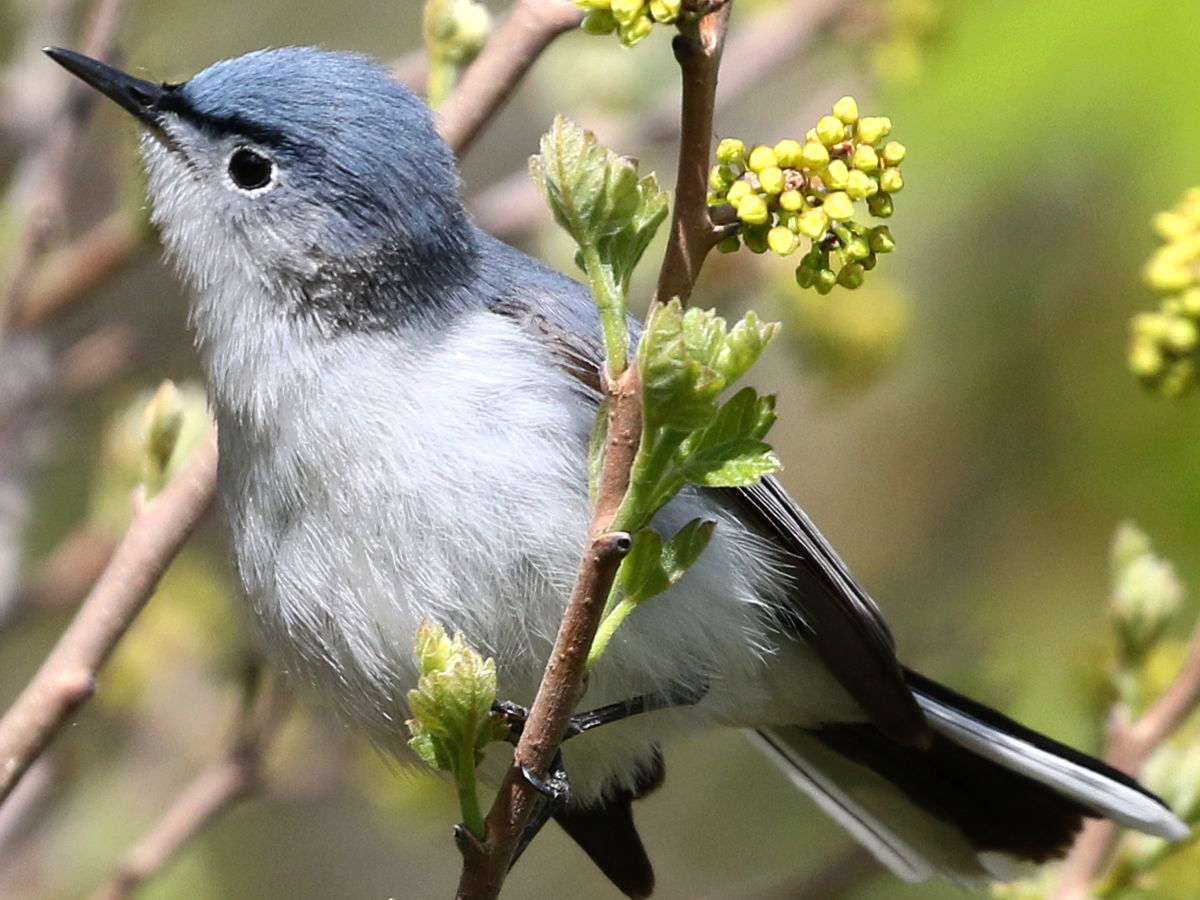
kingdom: Animalia
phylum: Chordata
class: Aves
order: Passeriformes
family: Polioptilidae
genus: Polioptila
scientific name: Polioptila caerulea
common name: Blue-gray gnatcatcher
